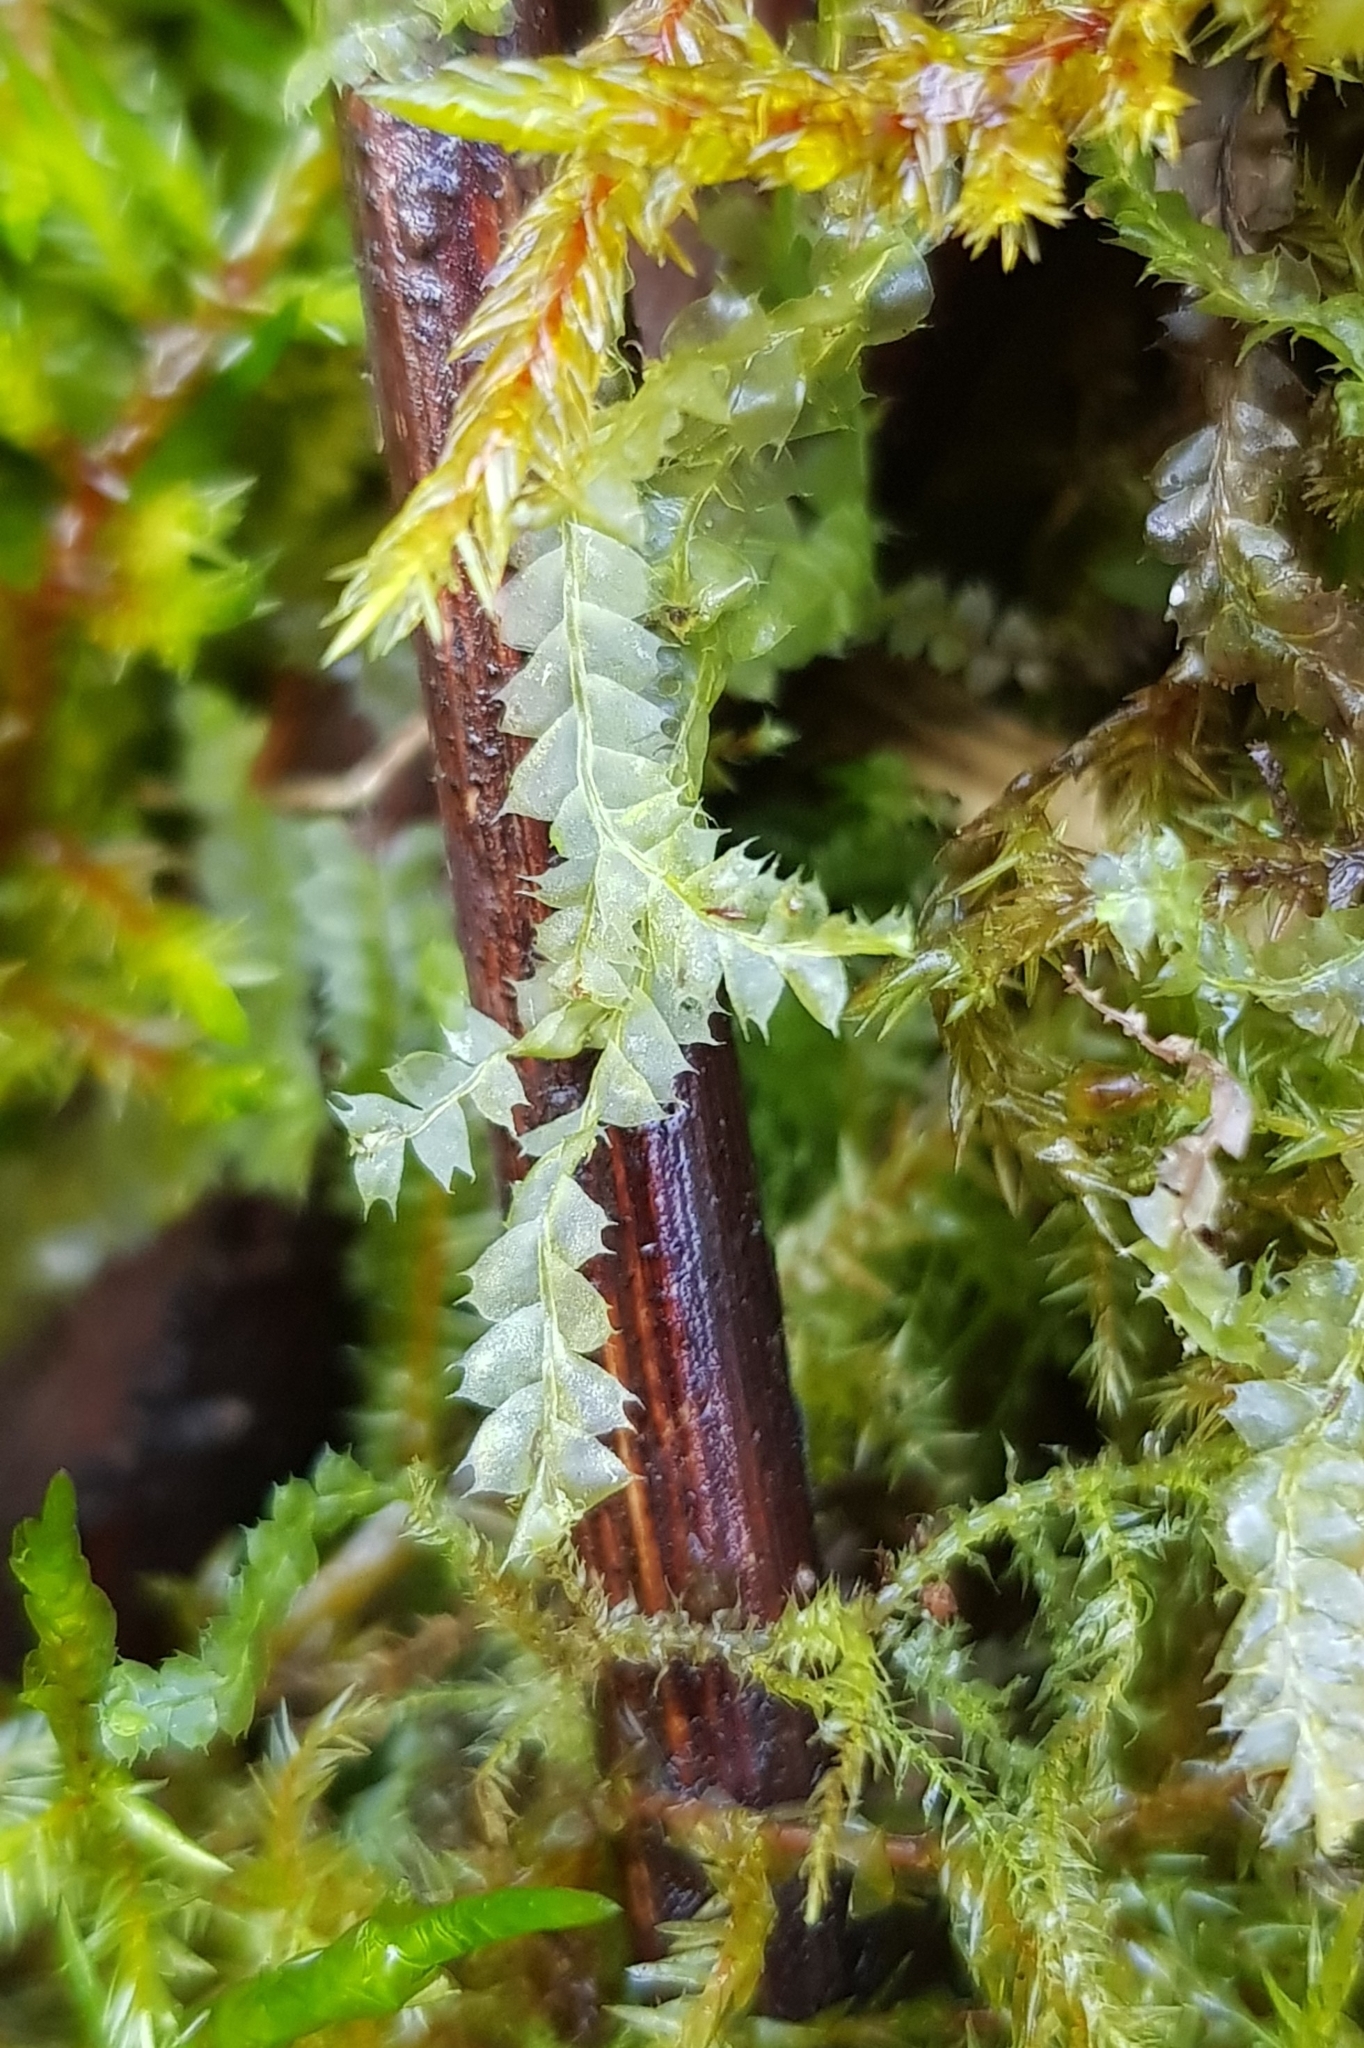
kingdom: Plantae
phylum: Marchantiophyta
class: Jungermanniopsida
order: Jungermanniales
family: Lophocoleaceae
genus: Lophocolea
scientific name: Lophocolea bidentata
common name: Bifid crestwort
